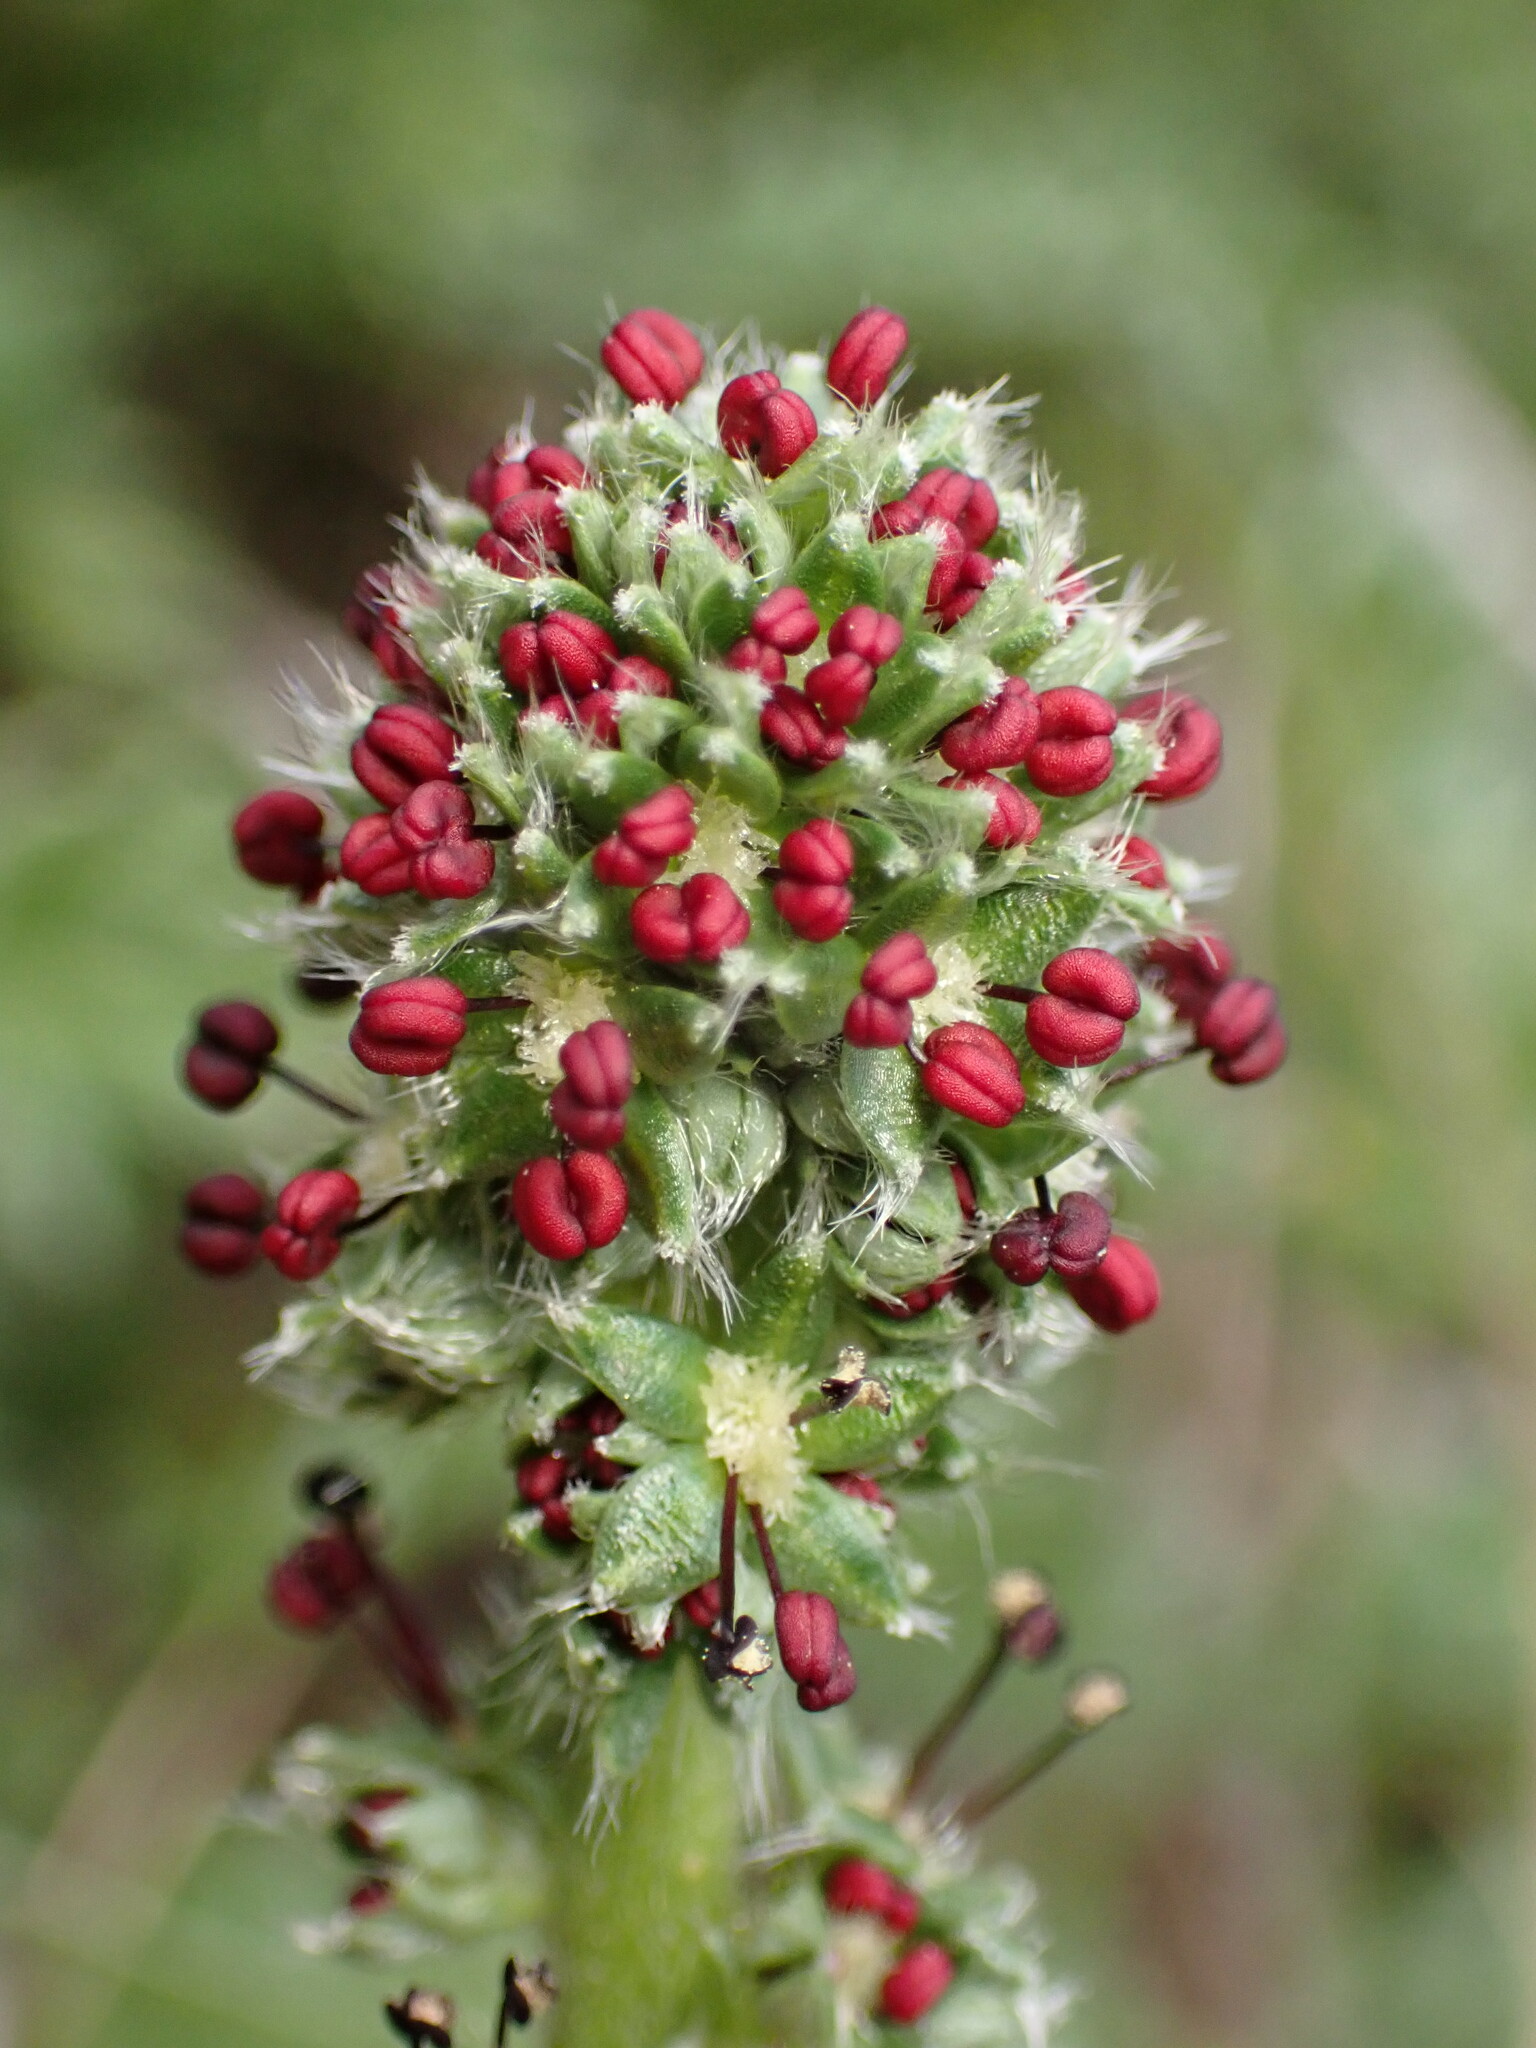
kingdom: Plantae
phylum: Tracheophyta
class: Magnoliopsida
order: Rosales
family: Rosaceae
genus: Acaena
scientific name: Acaena pinnatifida
